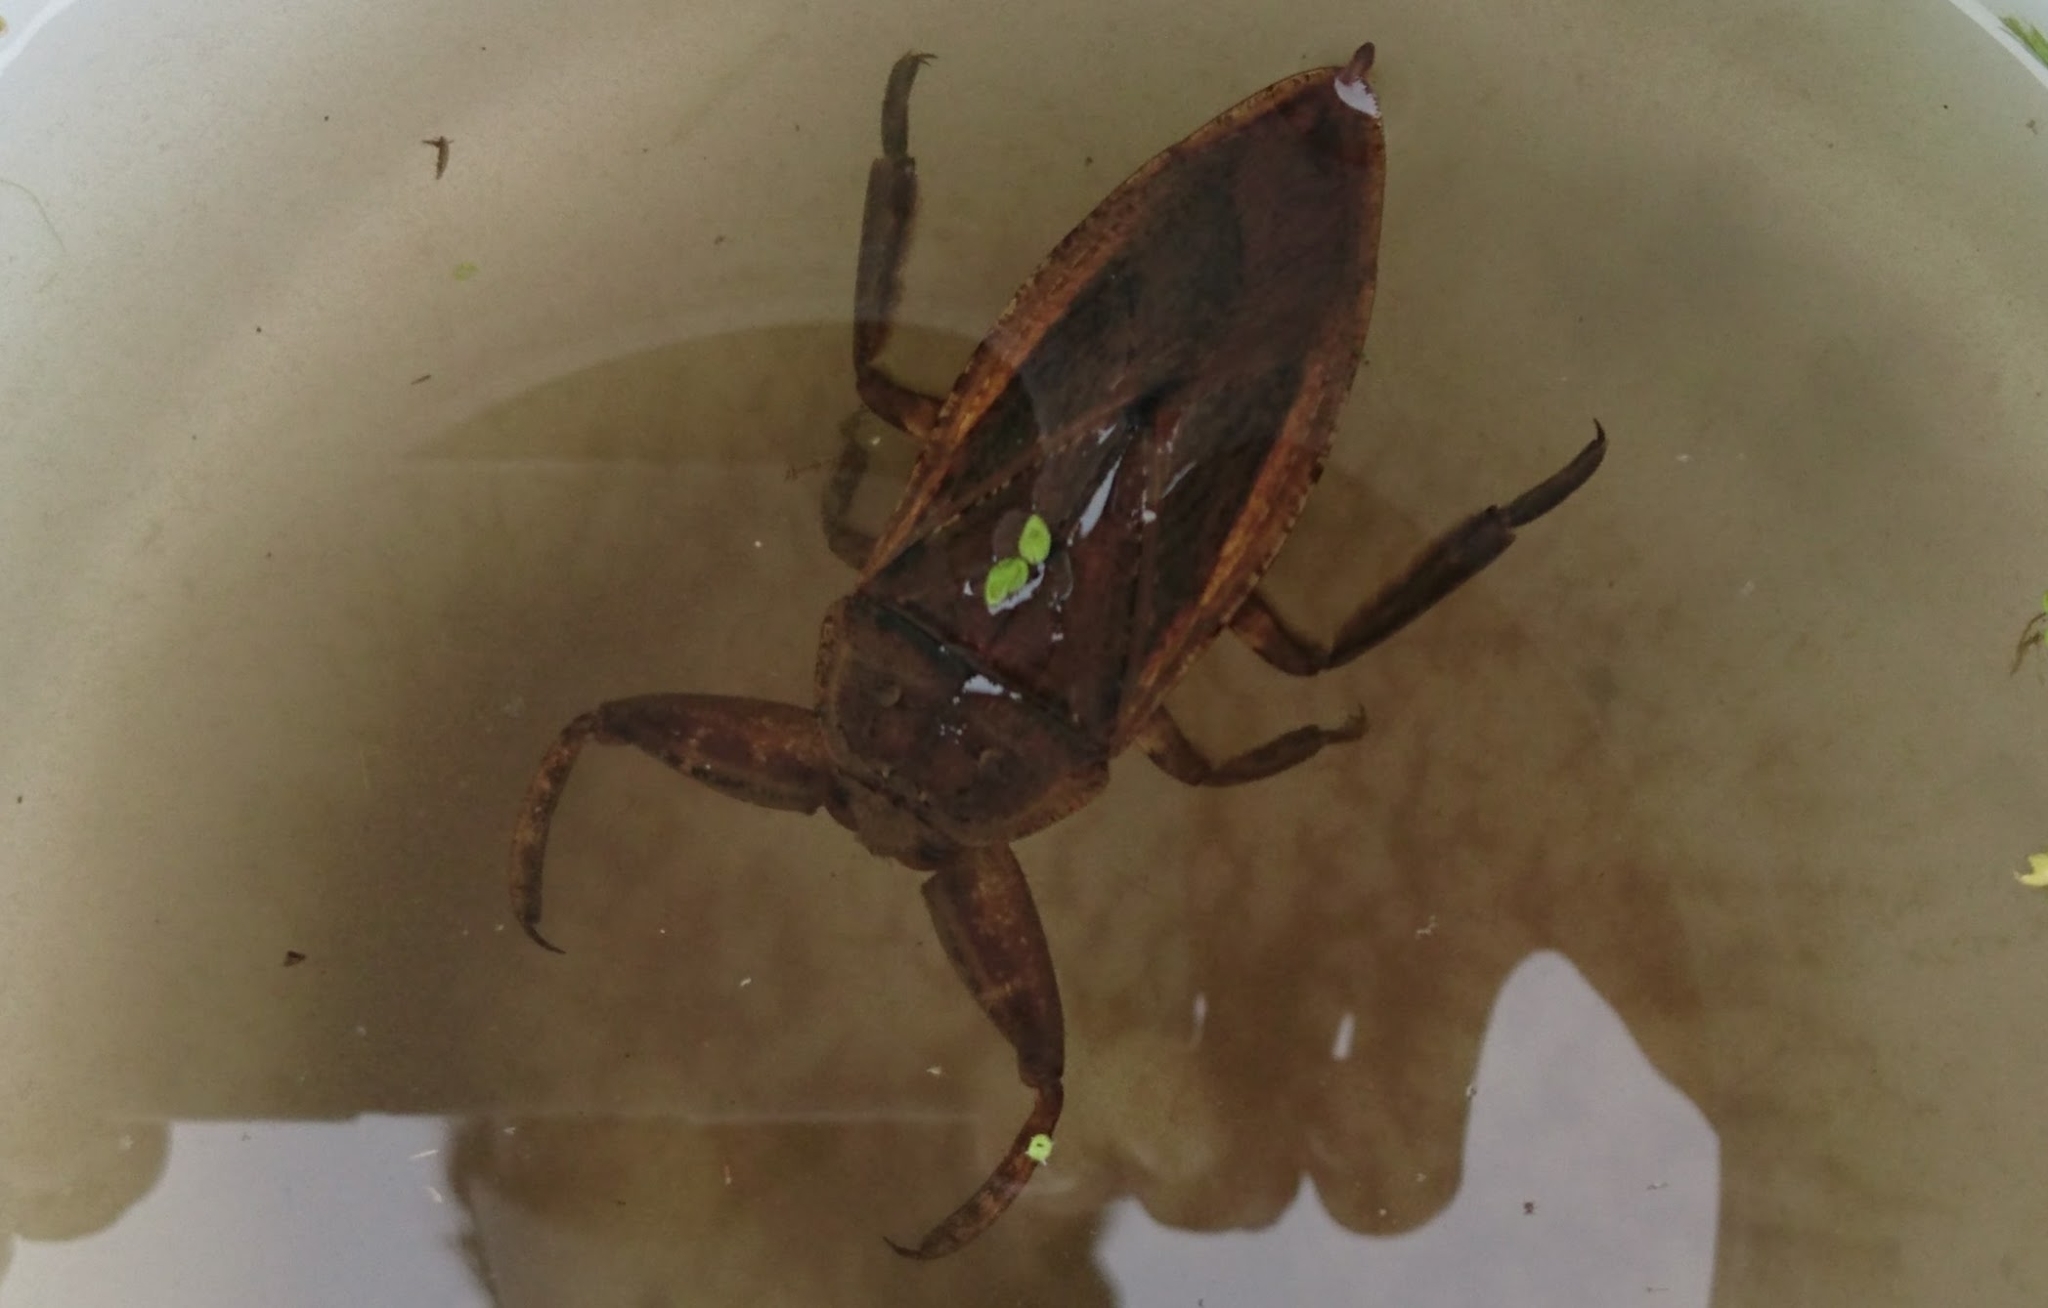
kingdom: Animalia
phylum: Arthropoda
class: Insecta
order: Hemiptera
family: Belostomatidae
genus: Kirkaldyia
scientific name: Kirkaldyia deyrollei
